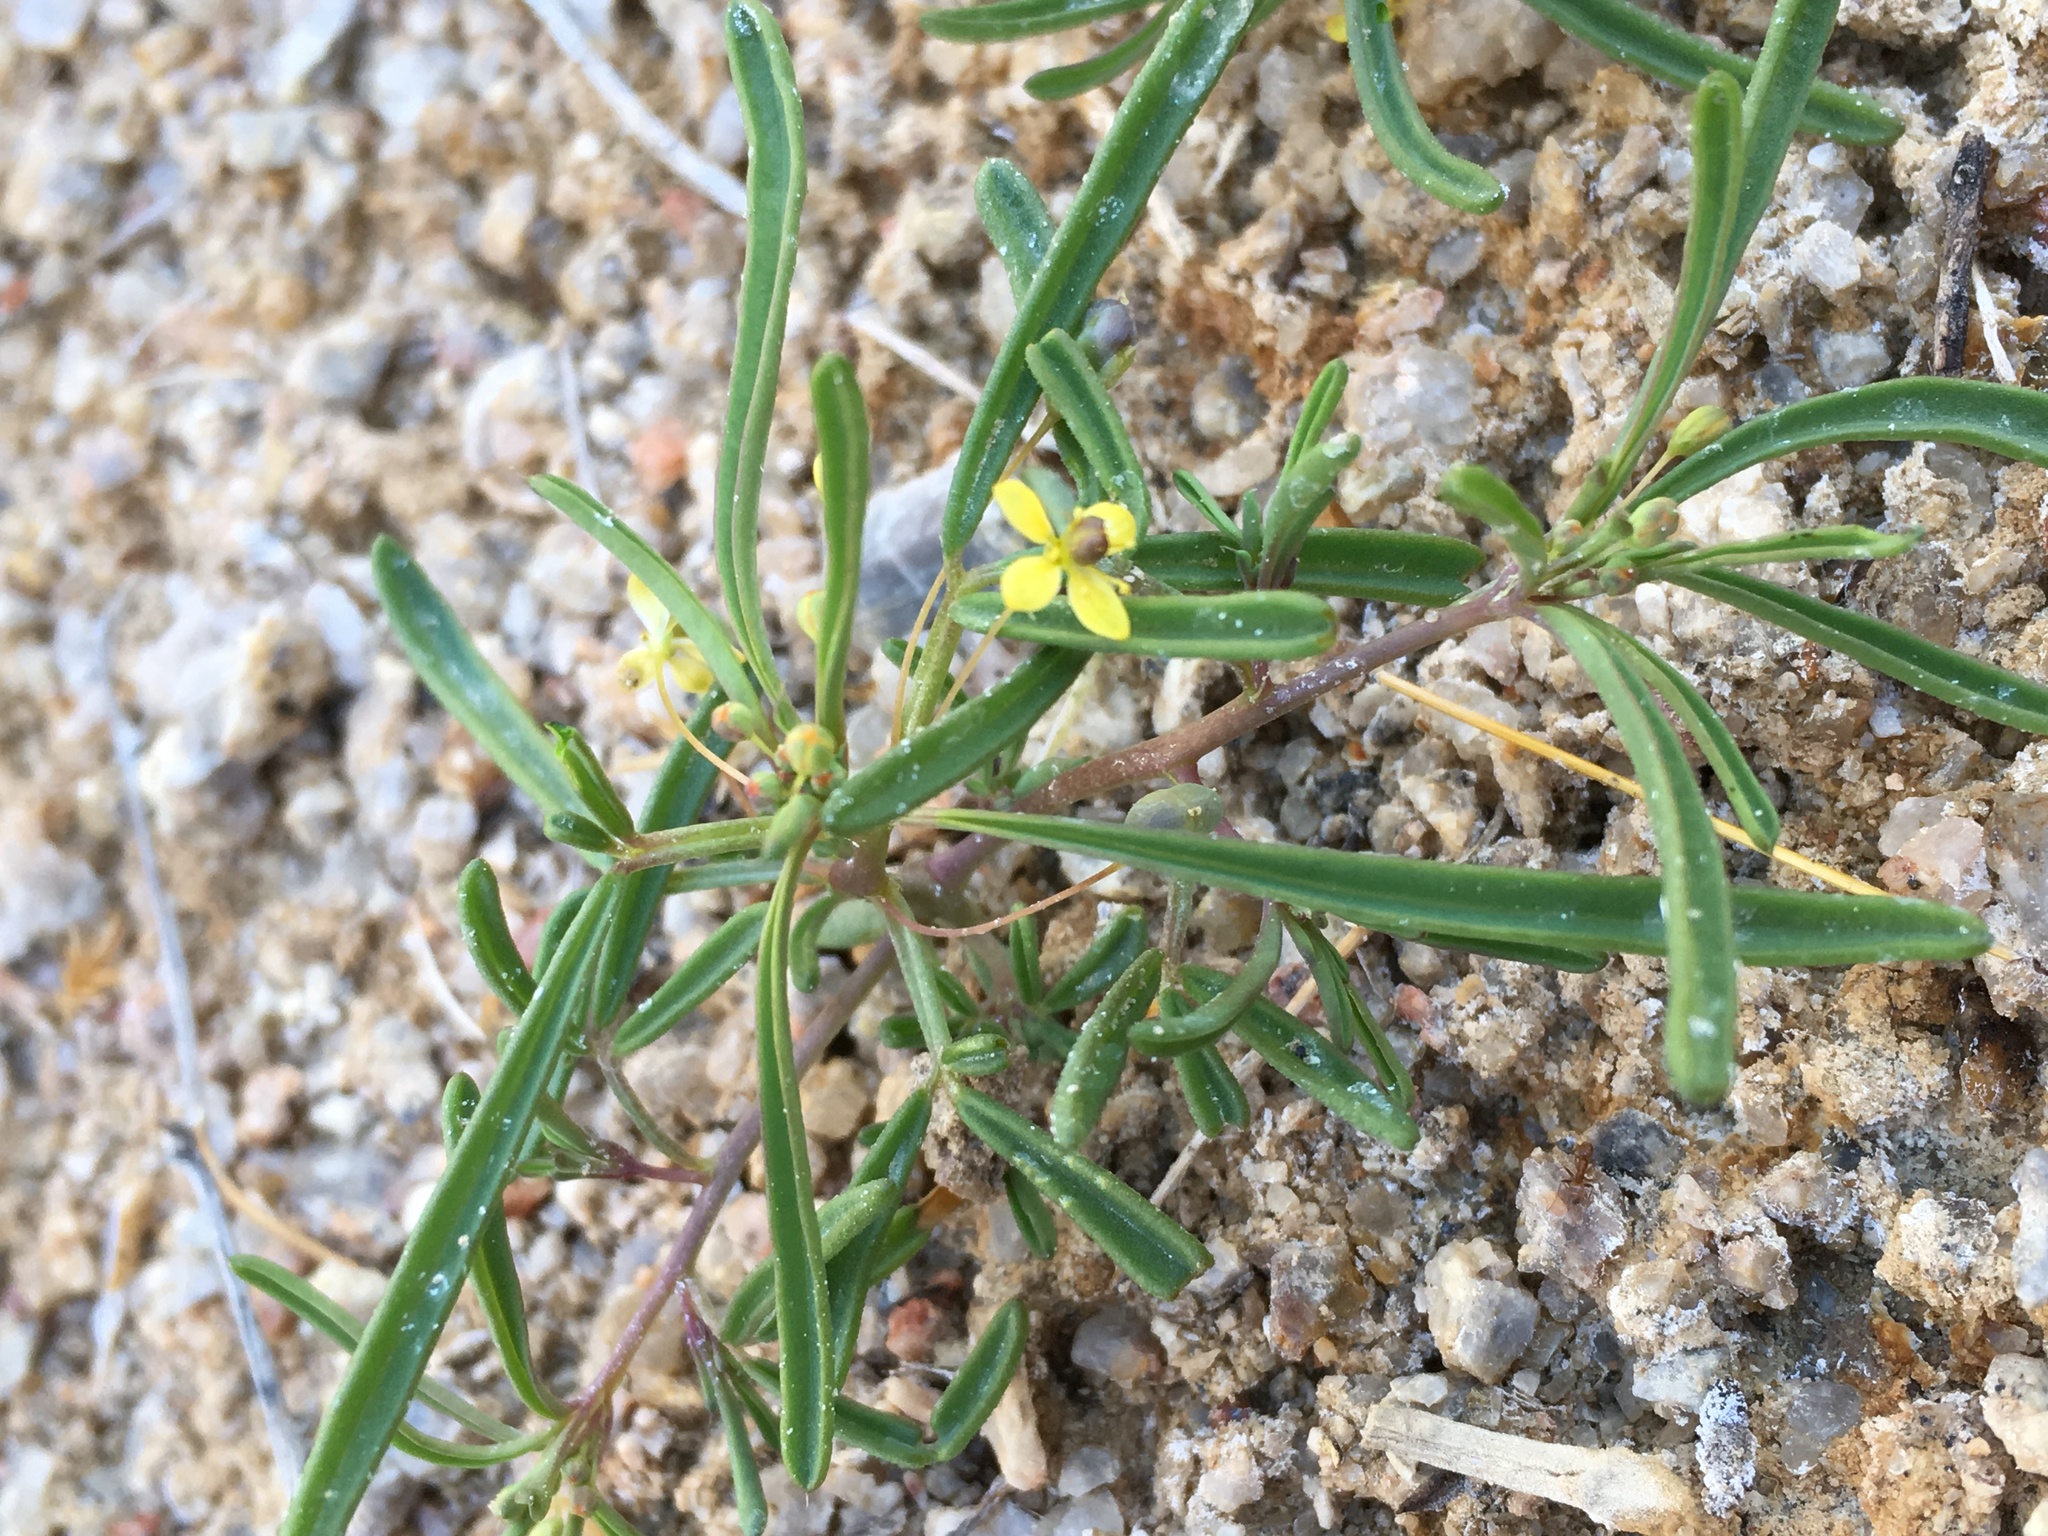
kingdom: Plantae
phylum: Tracheophyta
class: Magnoliopsida
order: Brassicales
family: Cleomaceae
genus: Cleomella
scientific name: Cleomella parviflora
